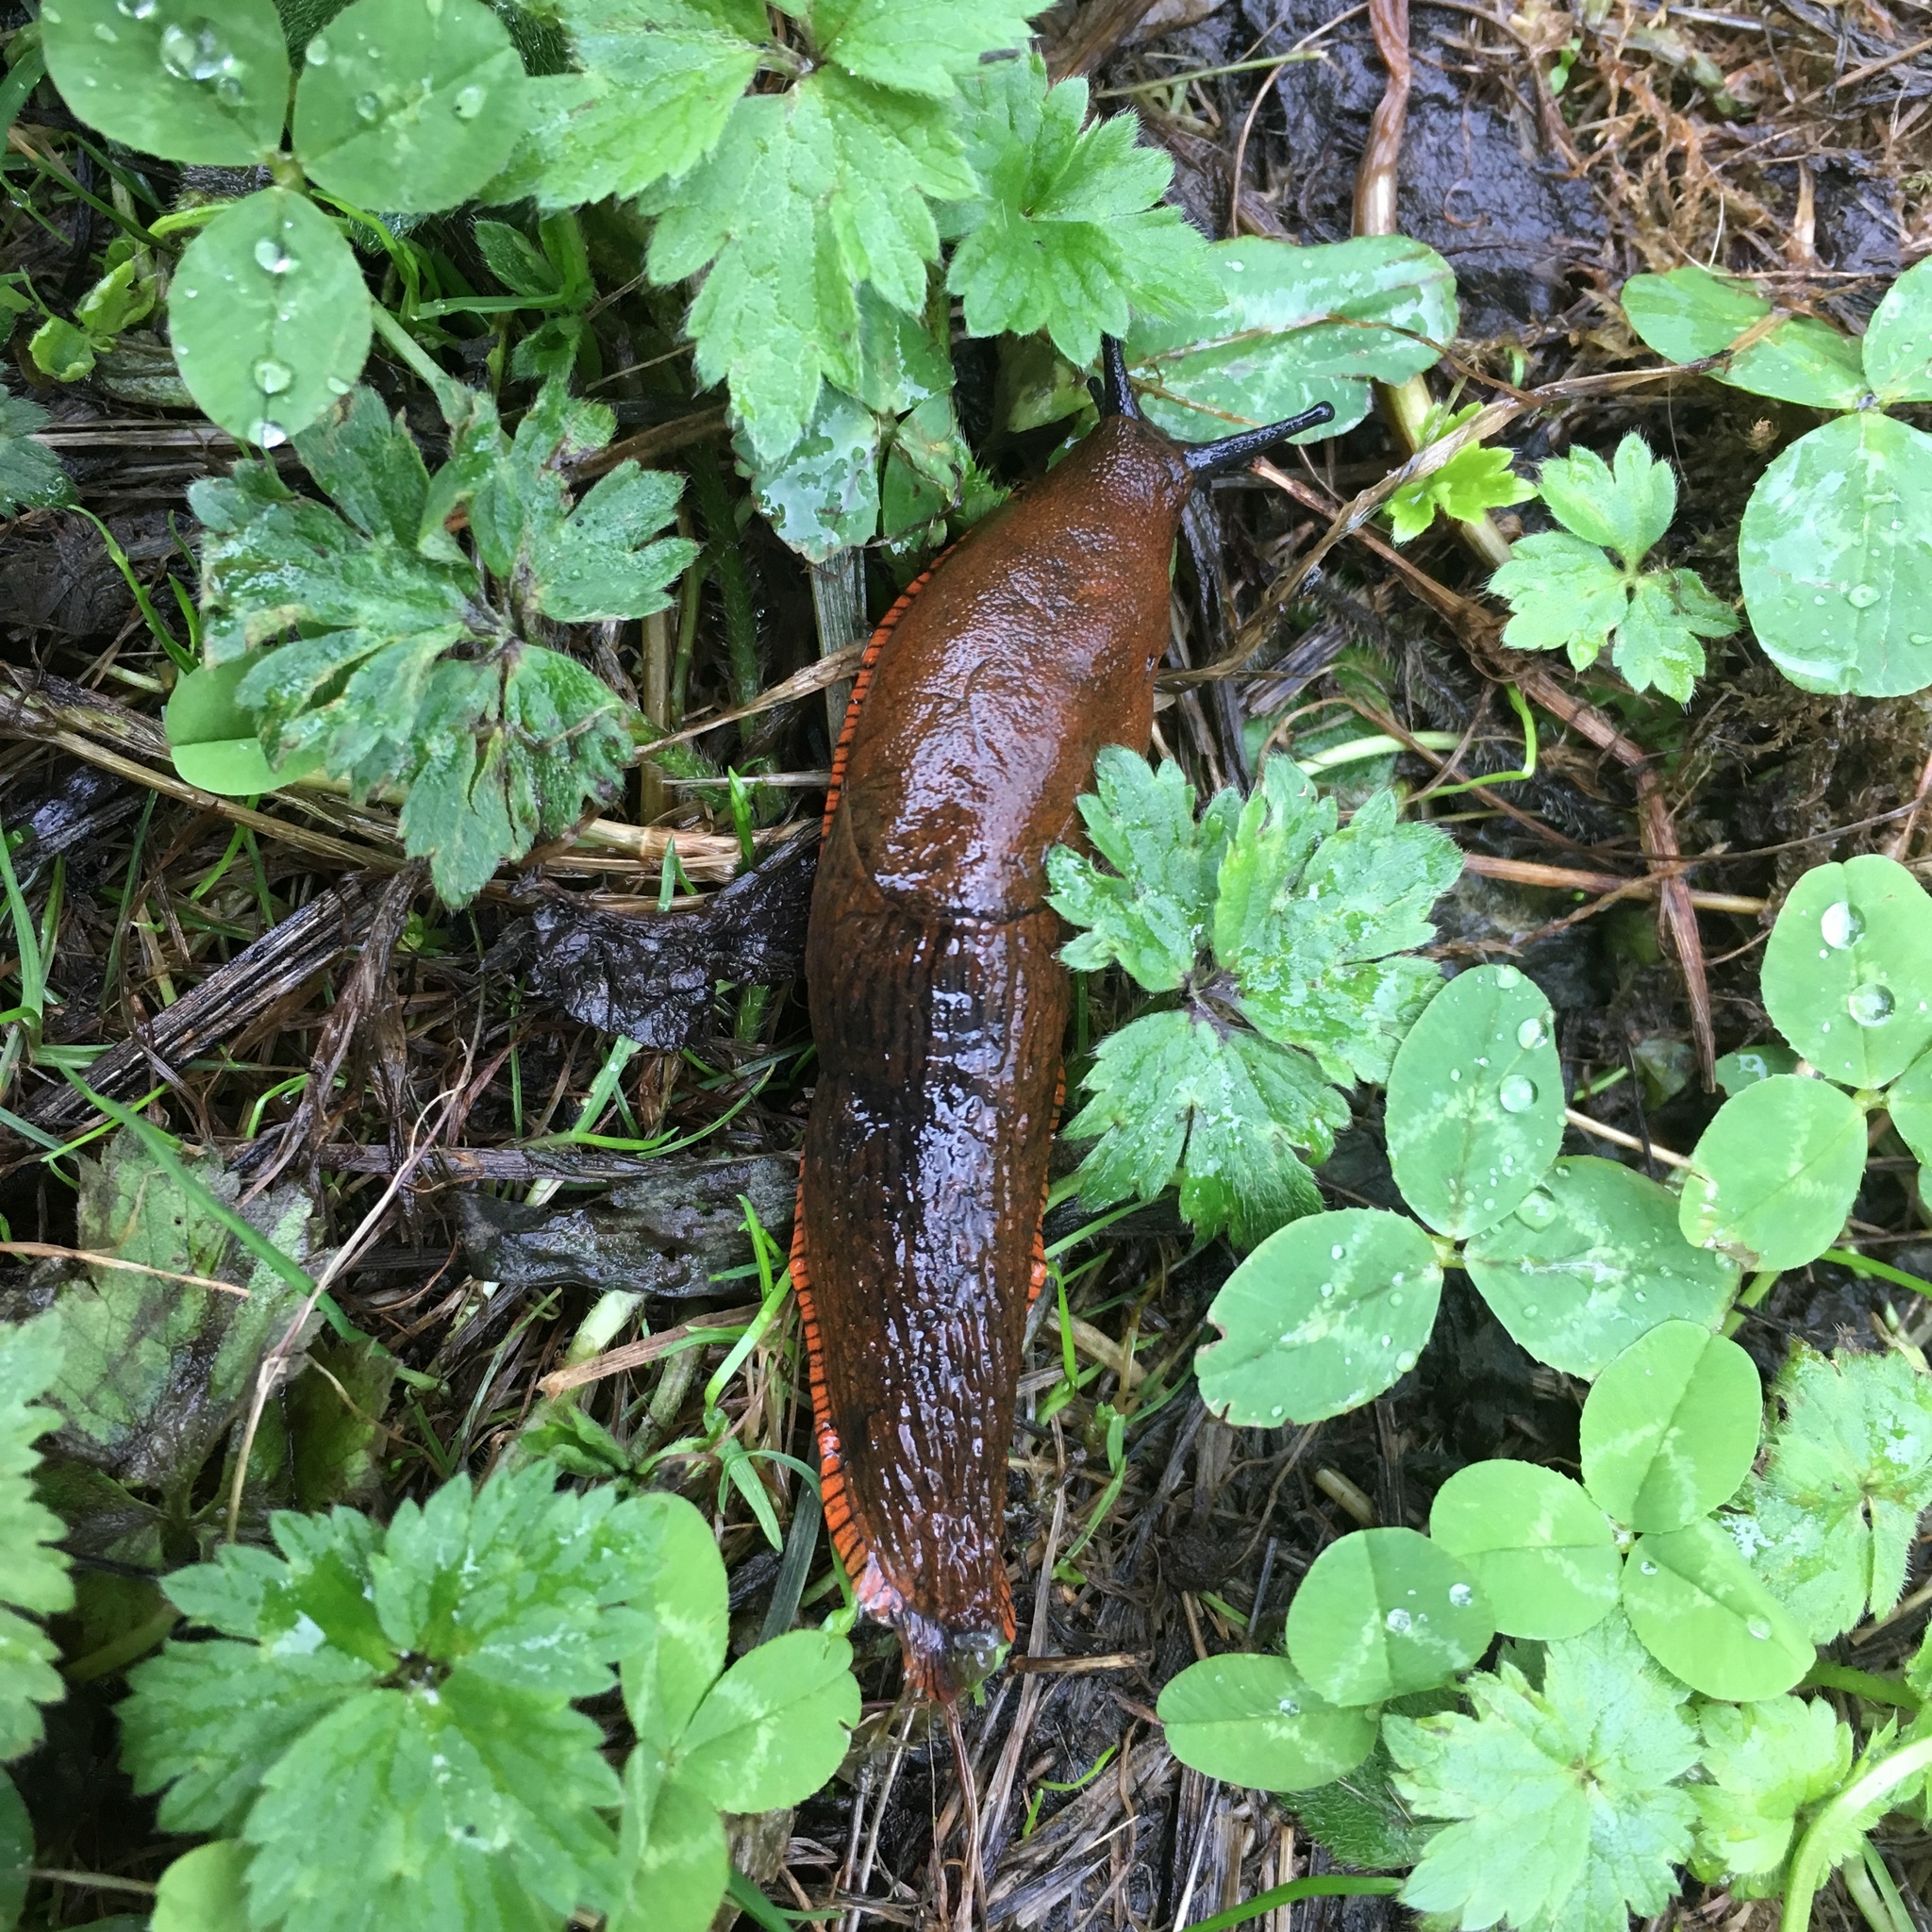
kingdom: Animalia
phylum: Mollusca
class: Gastropoda
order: Stylommatophora
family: Arionidae
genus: Arion
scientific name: Arion rufus
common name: Chocolate arion
